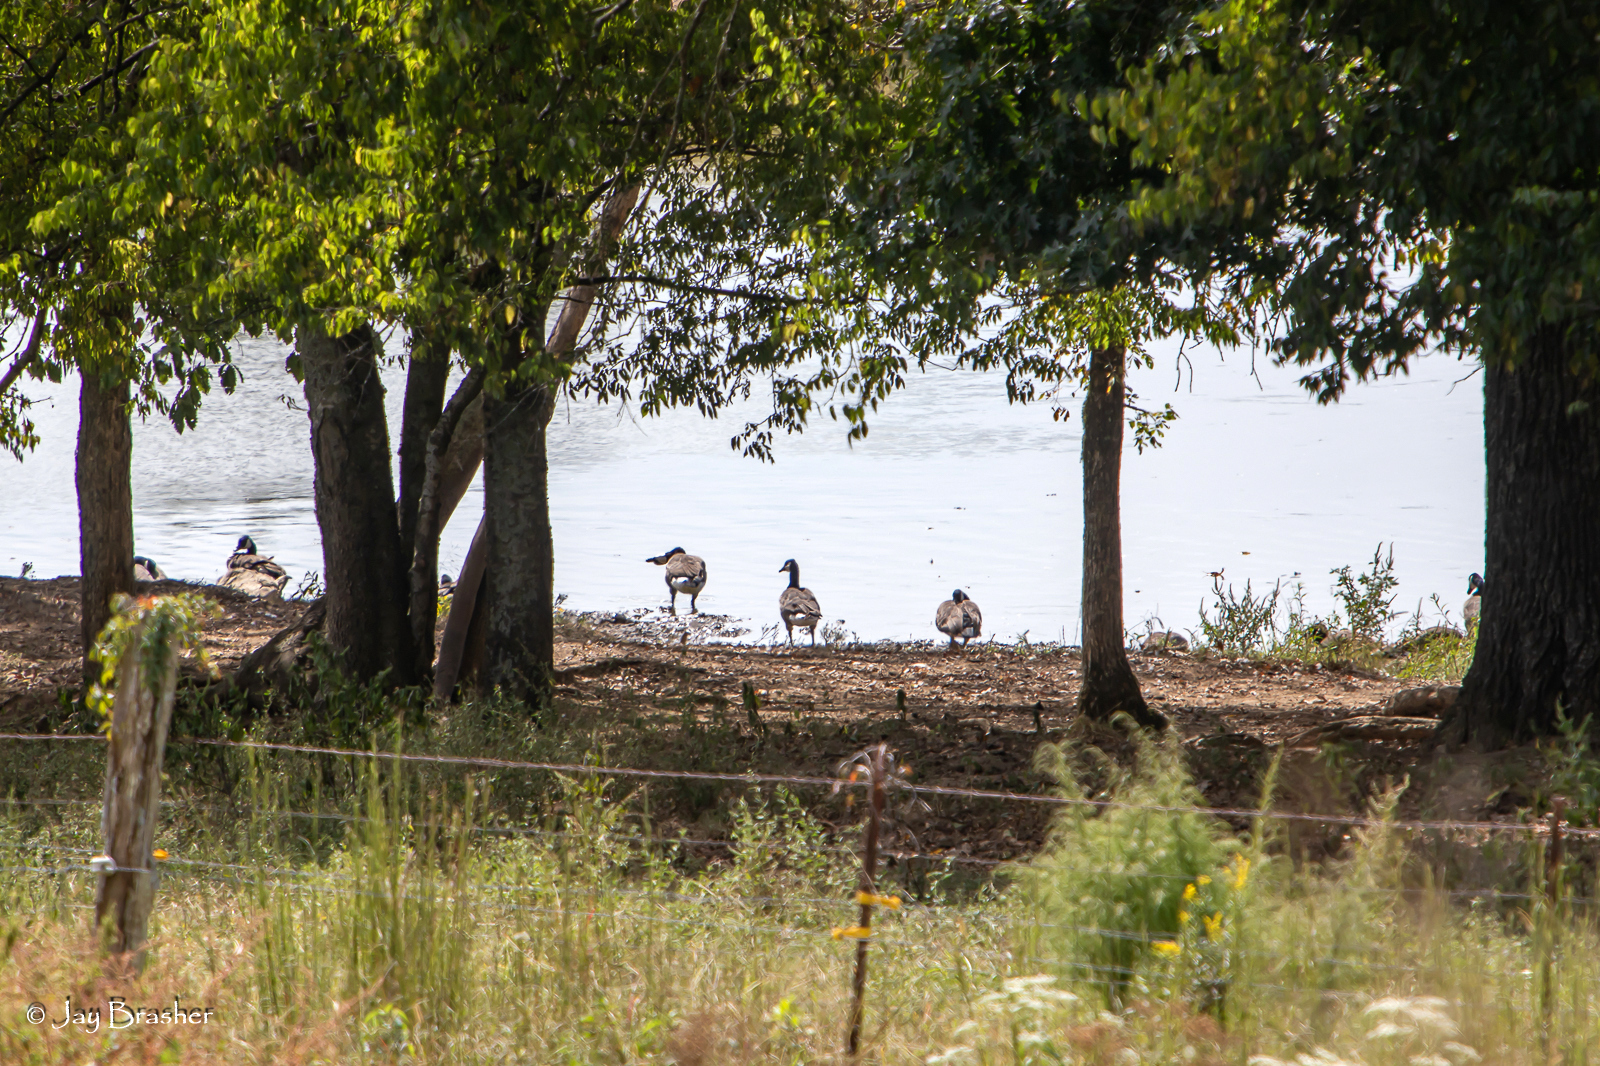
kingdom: Animalia
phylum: Chordata
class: Aves
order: Anseriformes
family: Anatidae
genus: Branta
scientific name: Branta canadensis
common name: Canada goose
